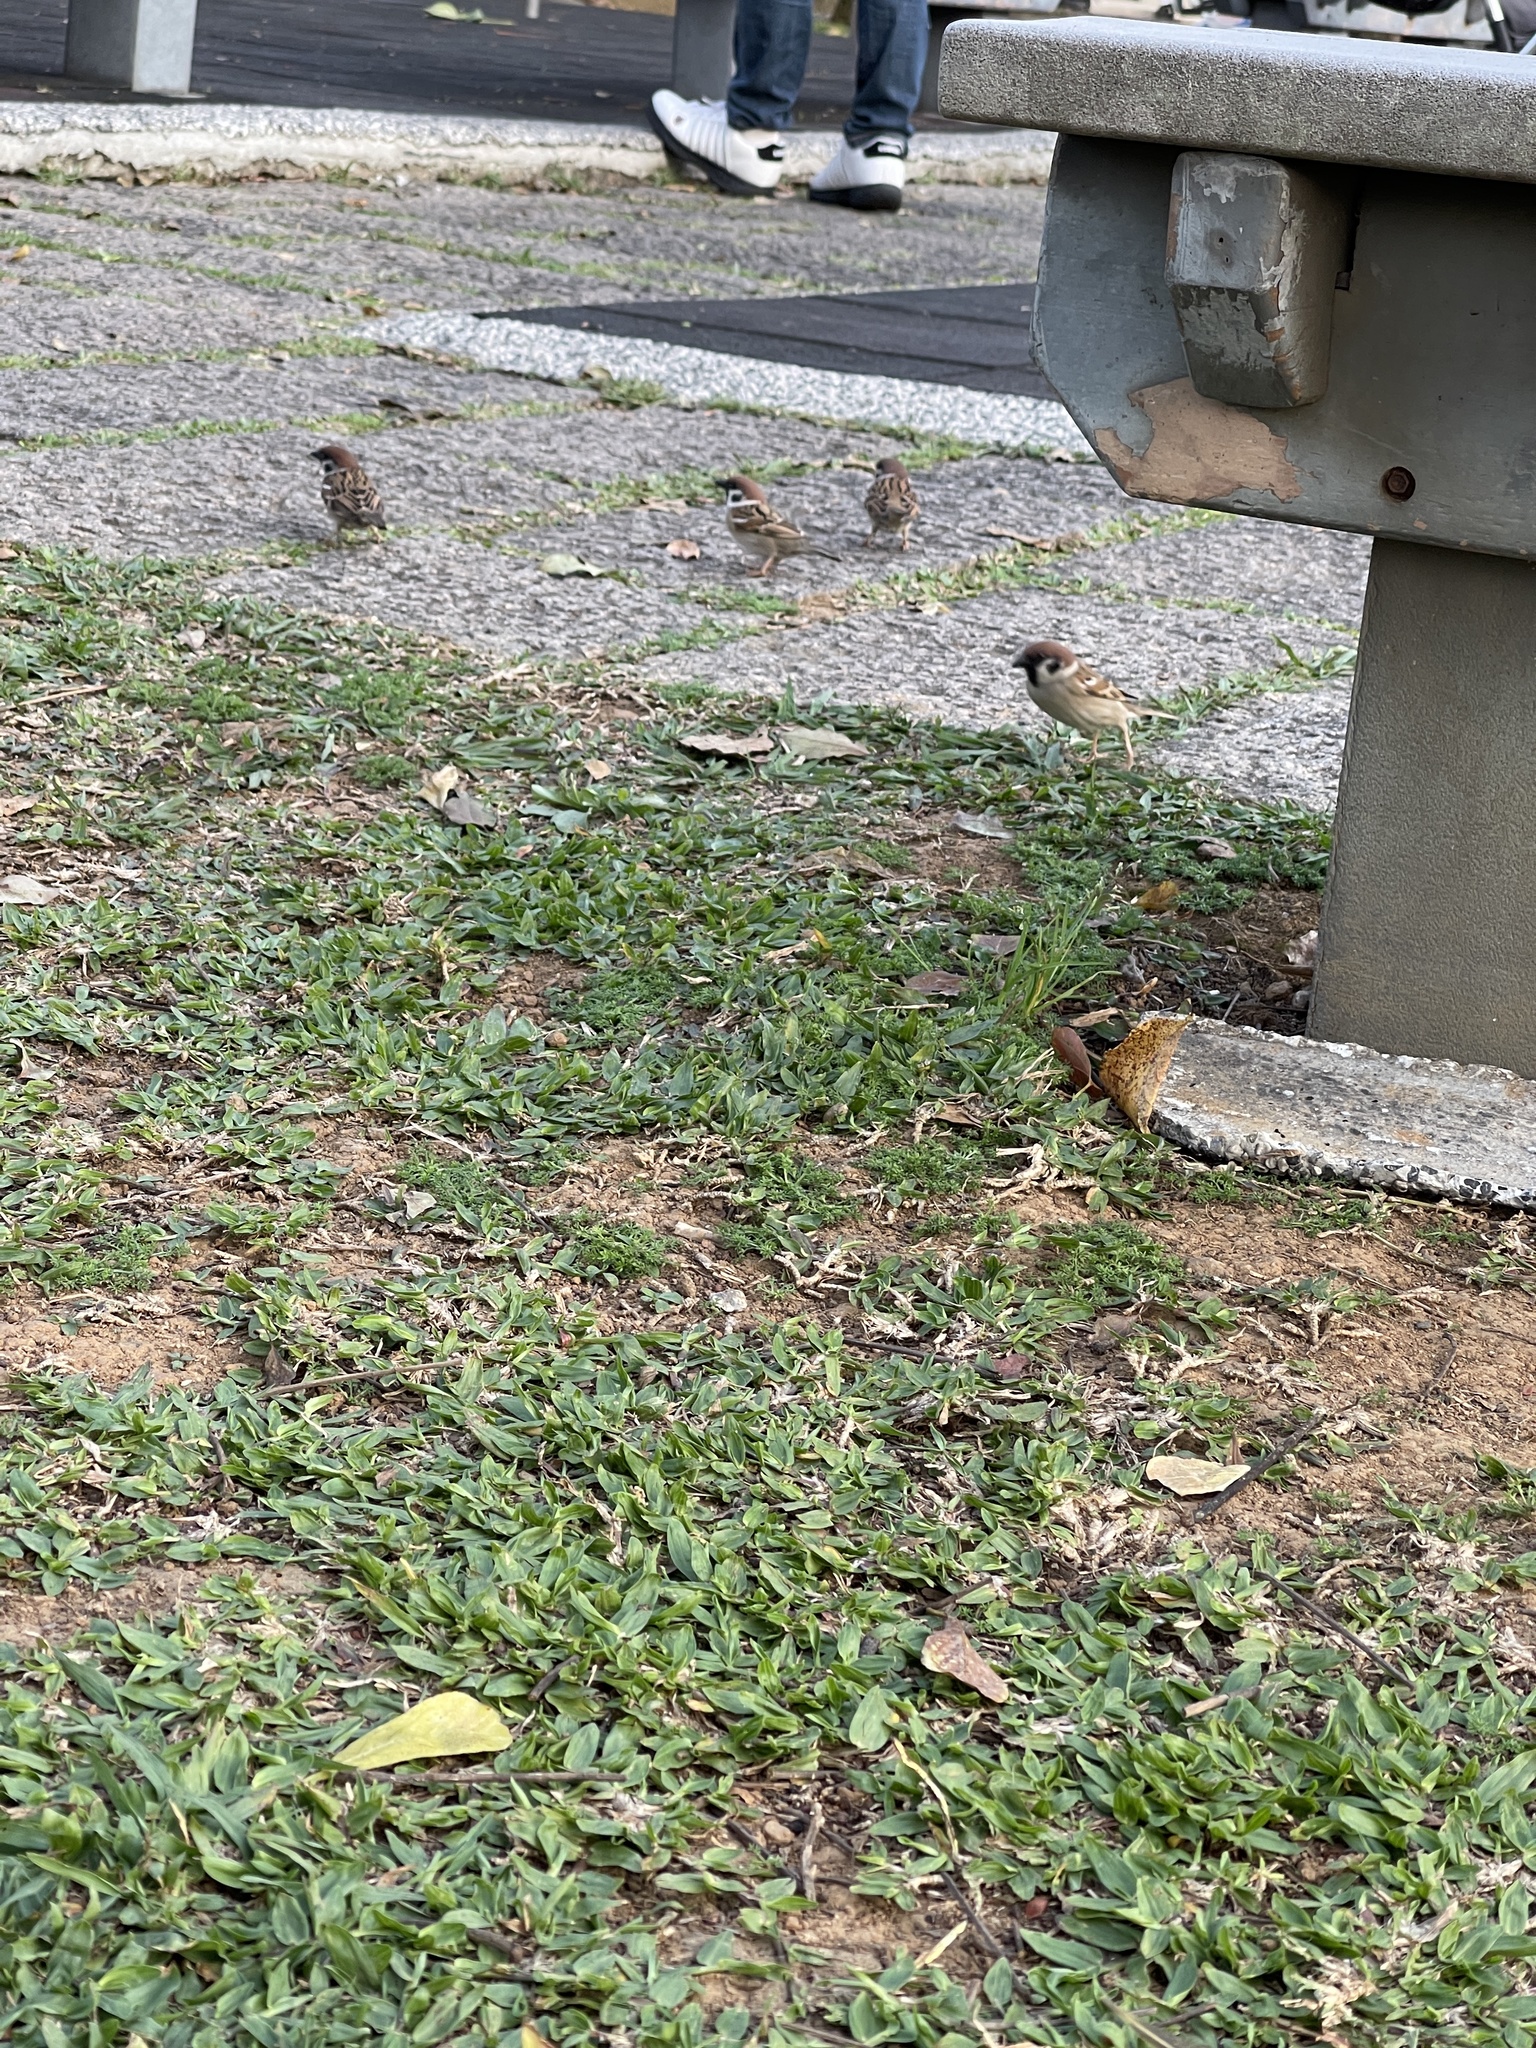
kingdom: Animalia
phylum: Chordata
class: Aves
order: Passeriformes
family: Passeridae
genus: Passer
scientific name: Passer montanus
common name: Eurasian tree sparrow
